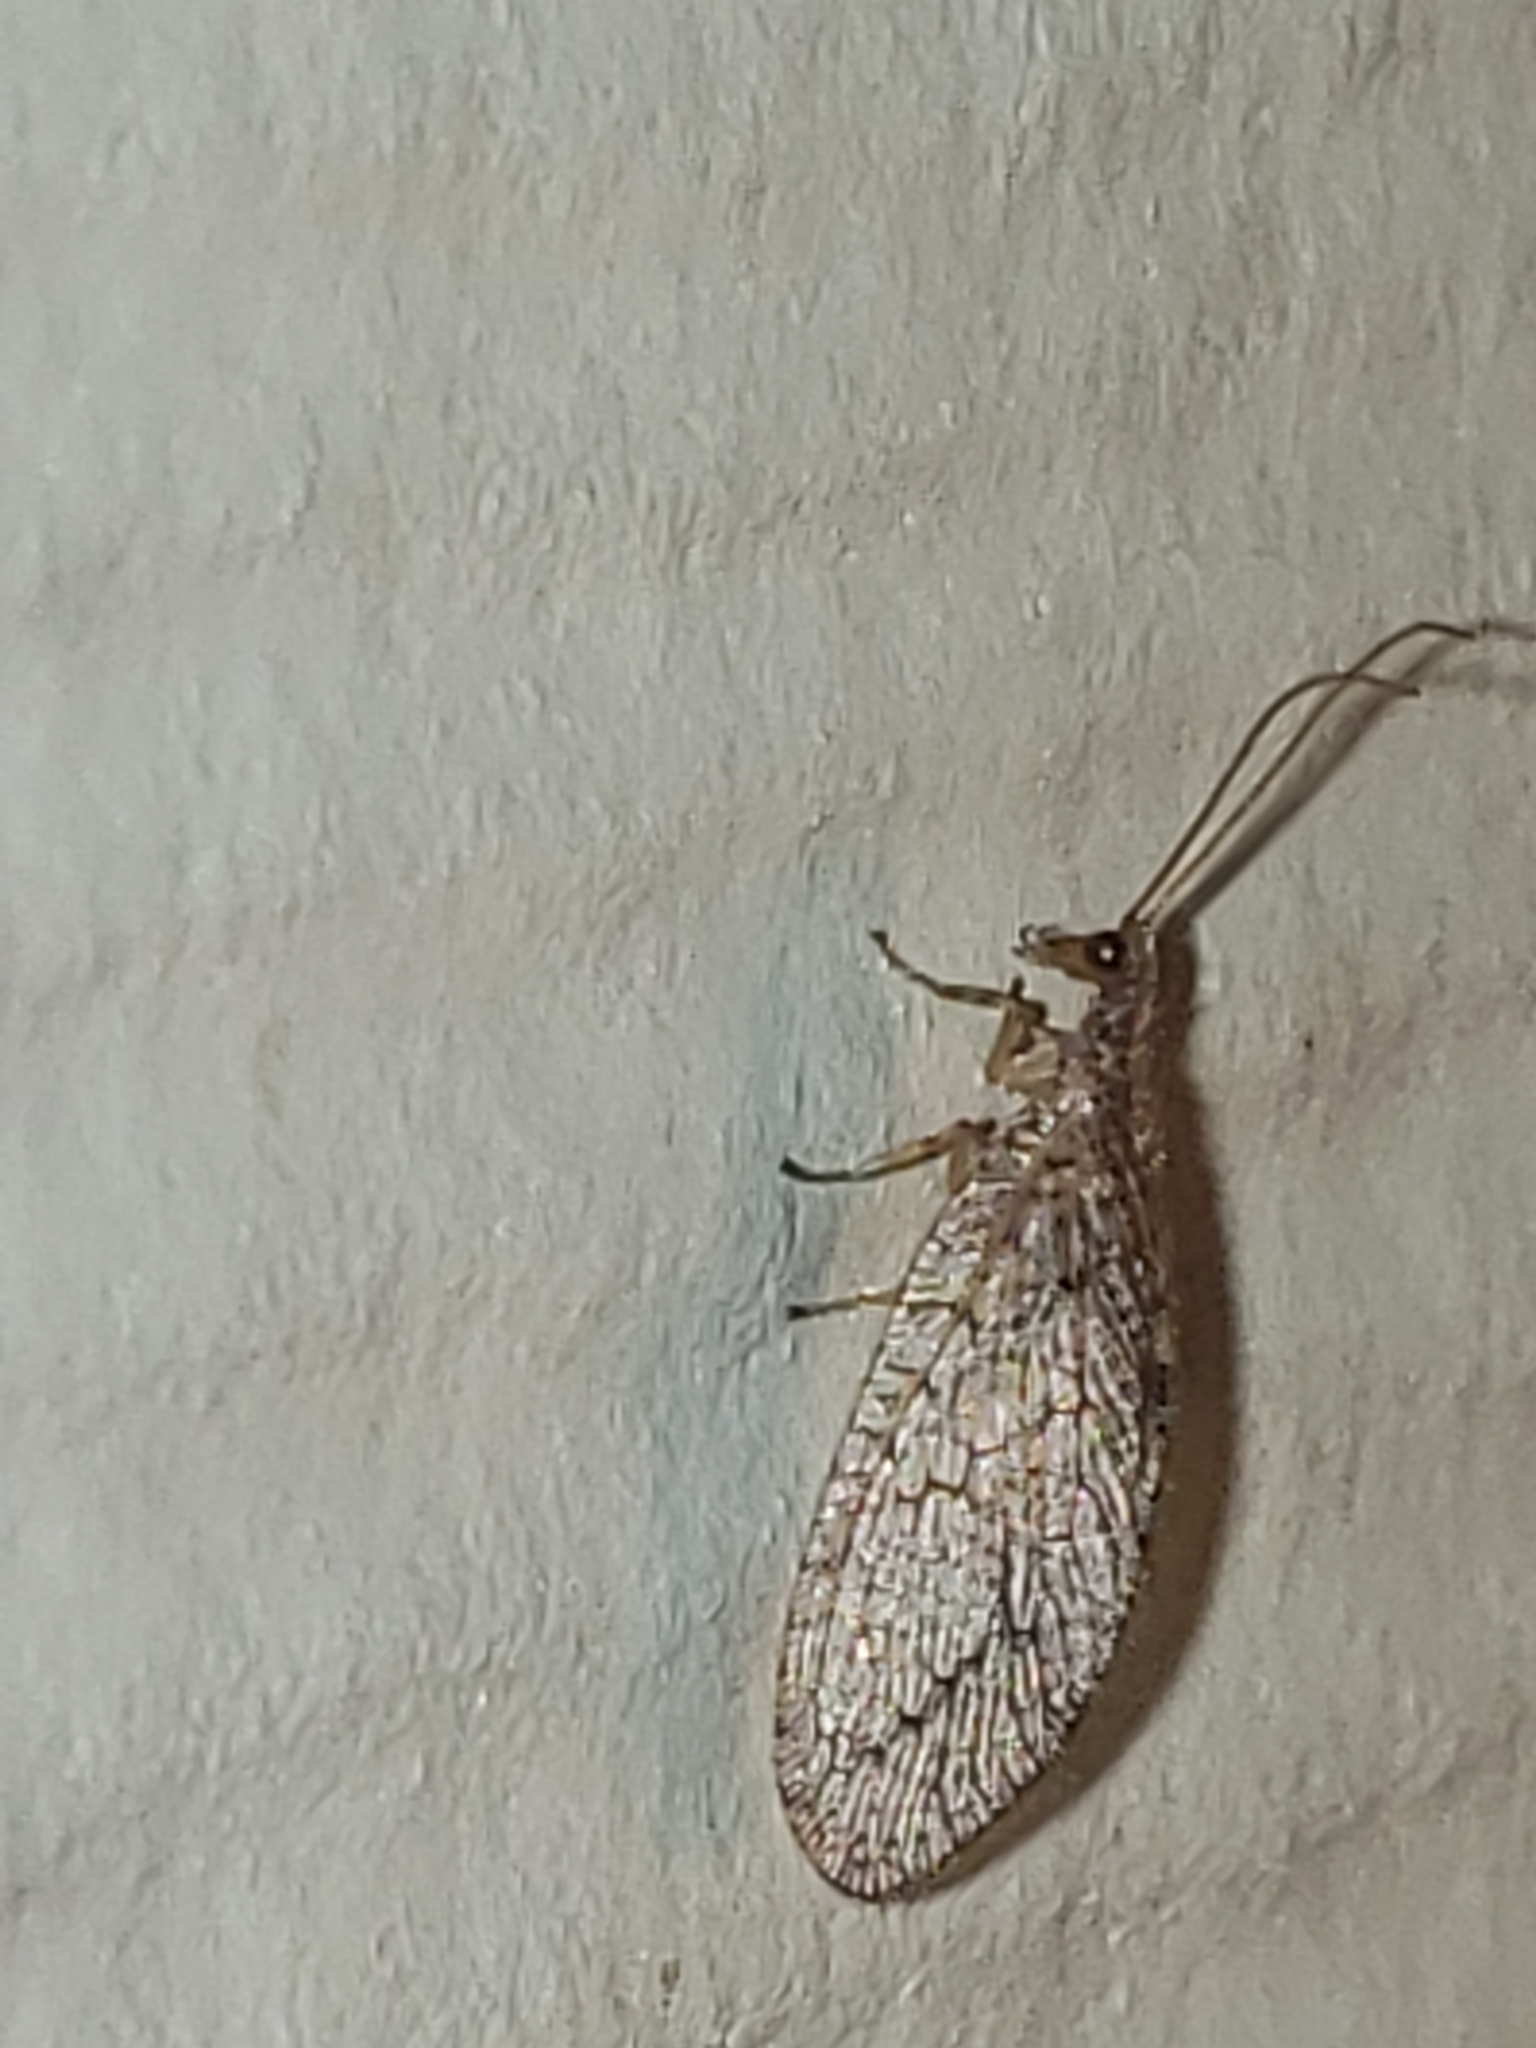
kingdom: Animalia
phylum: Arthropoda
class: Insecta
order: Neuroptera
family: Hemerobiidae
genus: Micromus
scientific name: Micromus posticus
